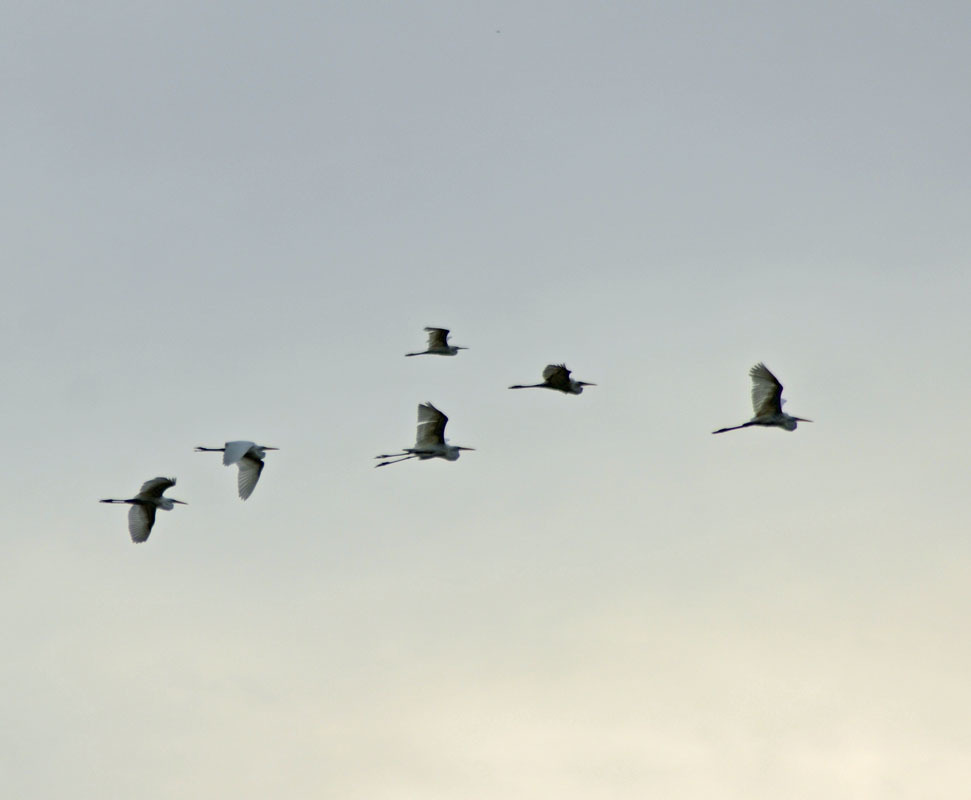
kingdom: Animalia
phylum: Chordata
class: Aves
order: Pelecaniformes
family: Ardeidae
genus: Ardea
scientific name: Ardea alba
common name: Great egret
